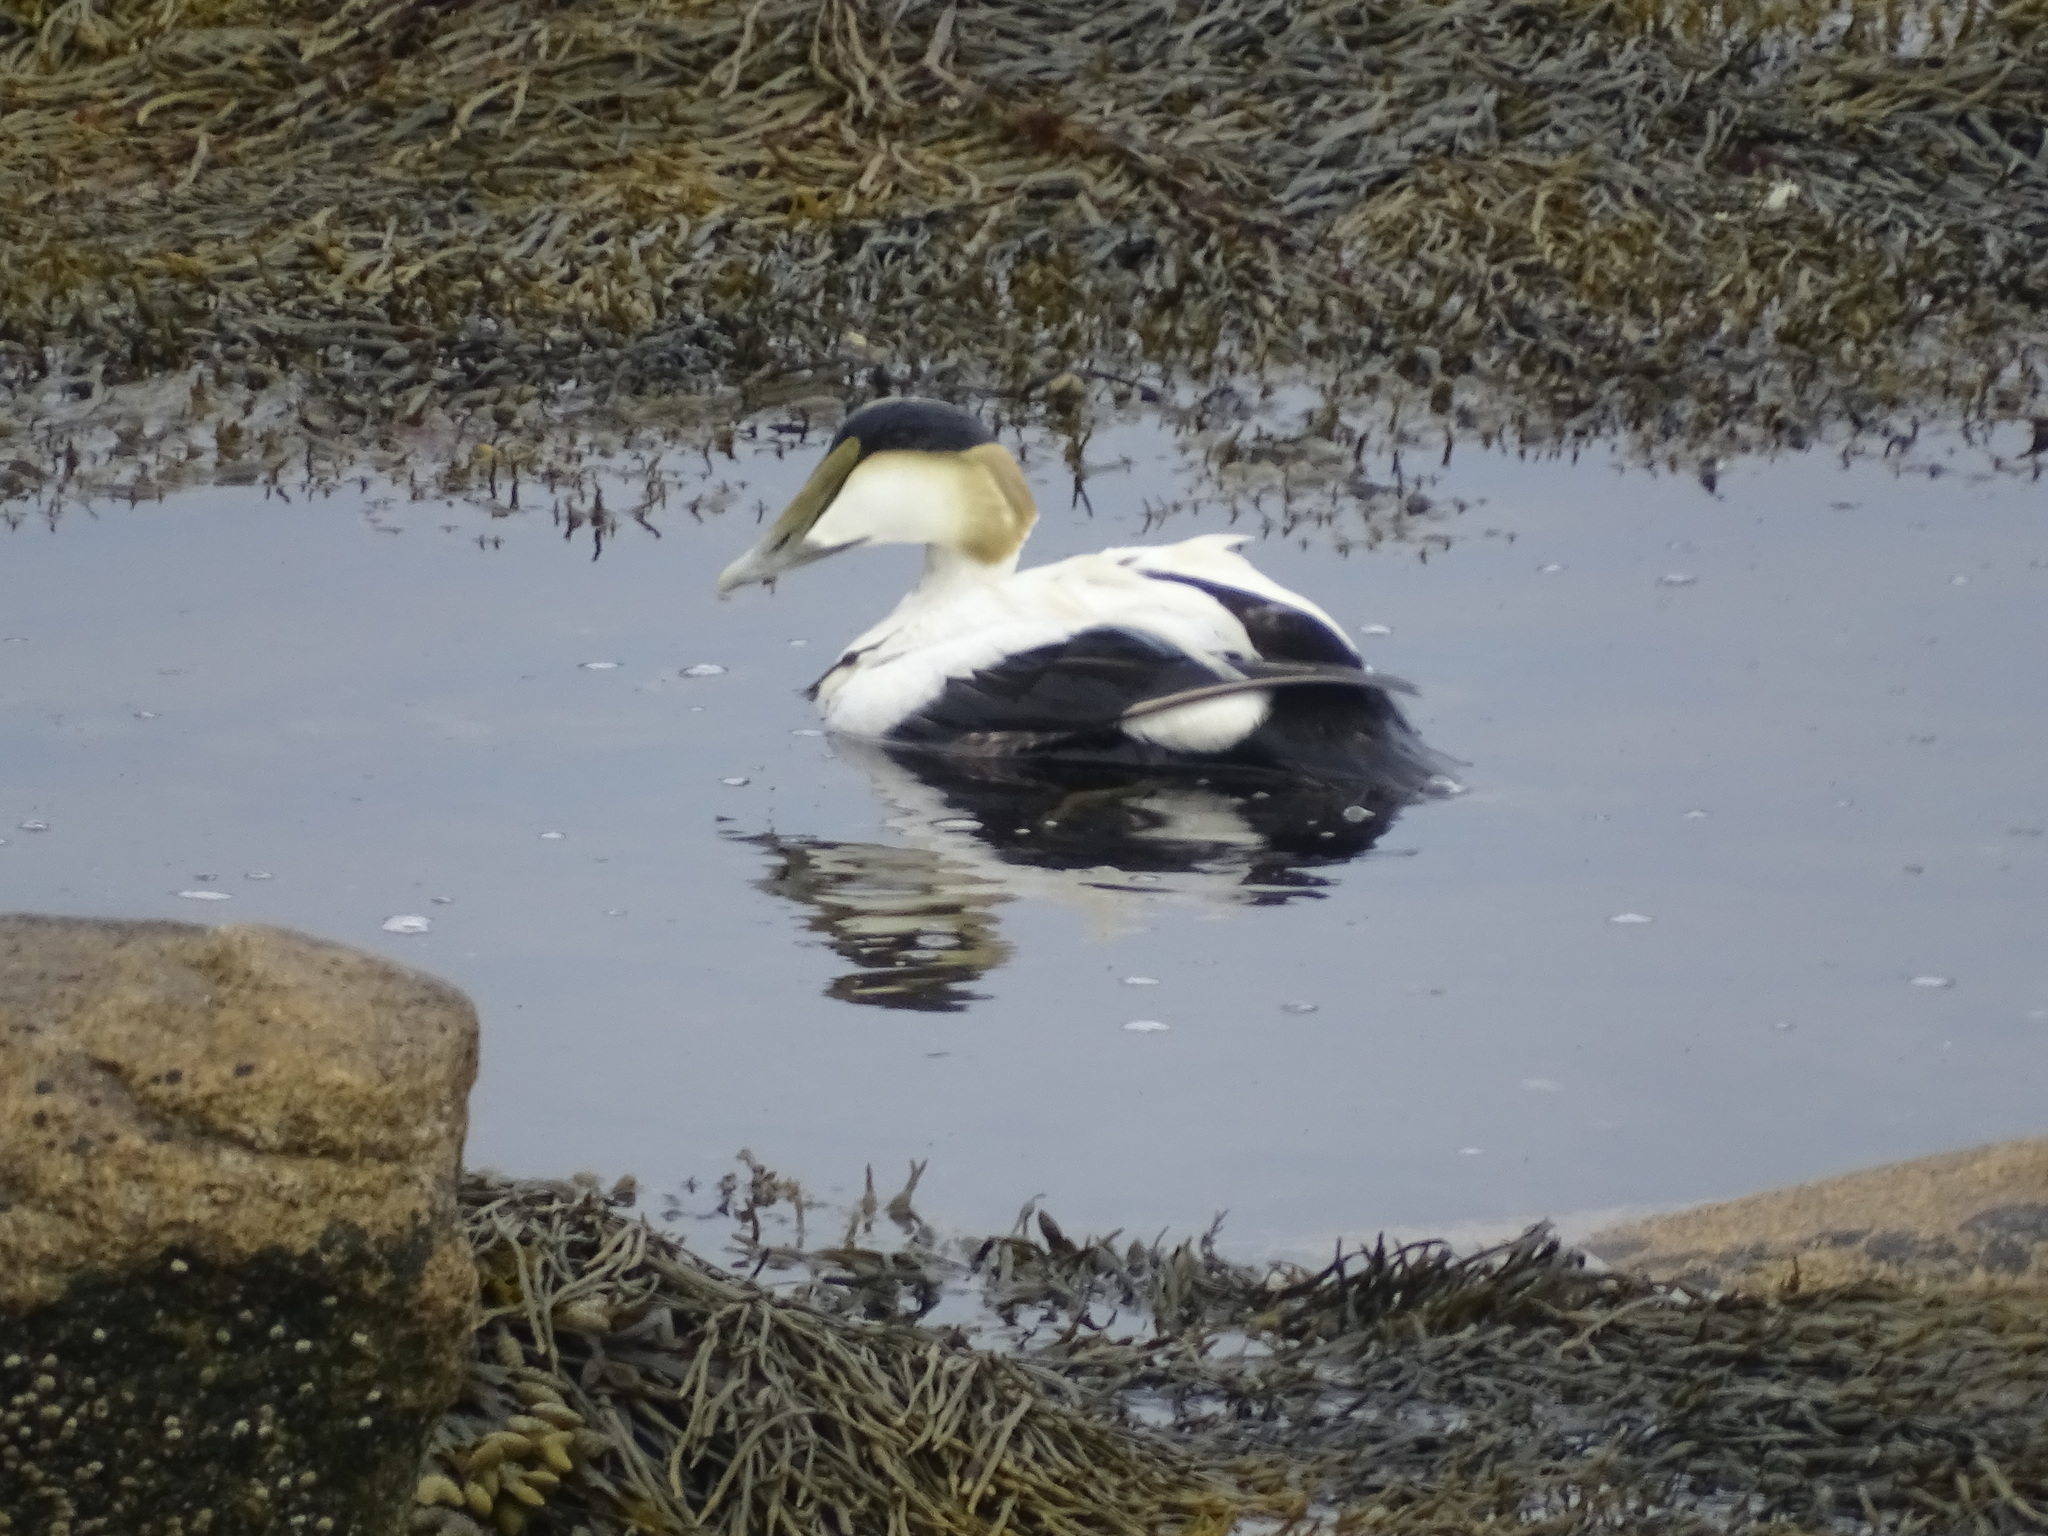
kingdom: Animalia
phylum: Chordata
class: Aves
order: Anseriformes
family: Anatidae
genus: Somateria
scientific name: Somateria mollissima
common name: Common eider
